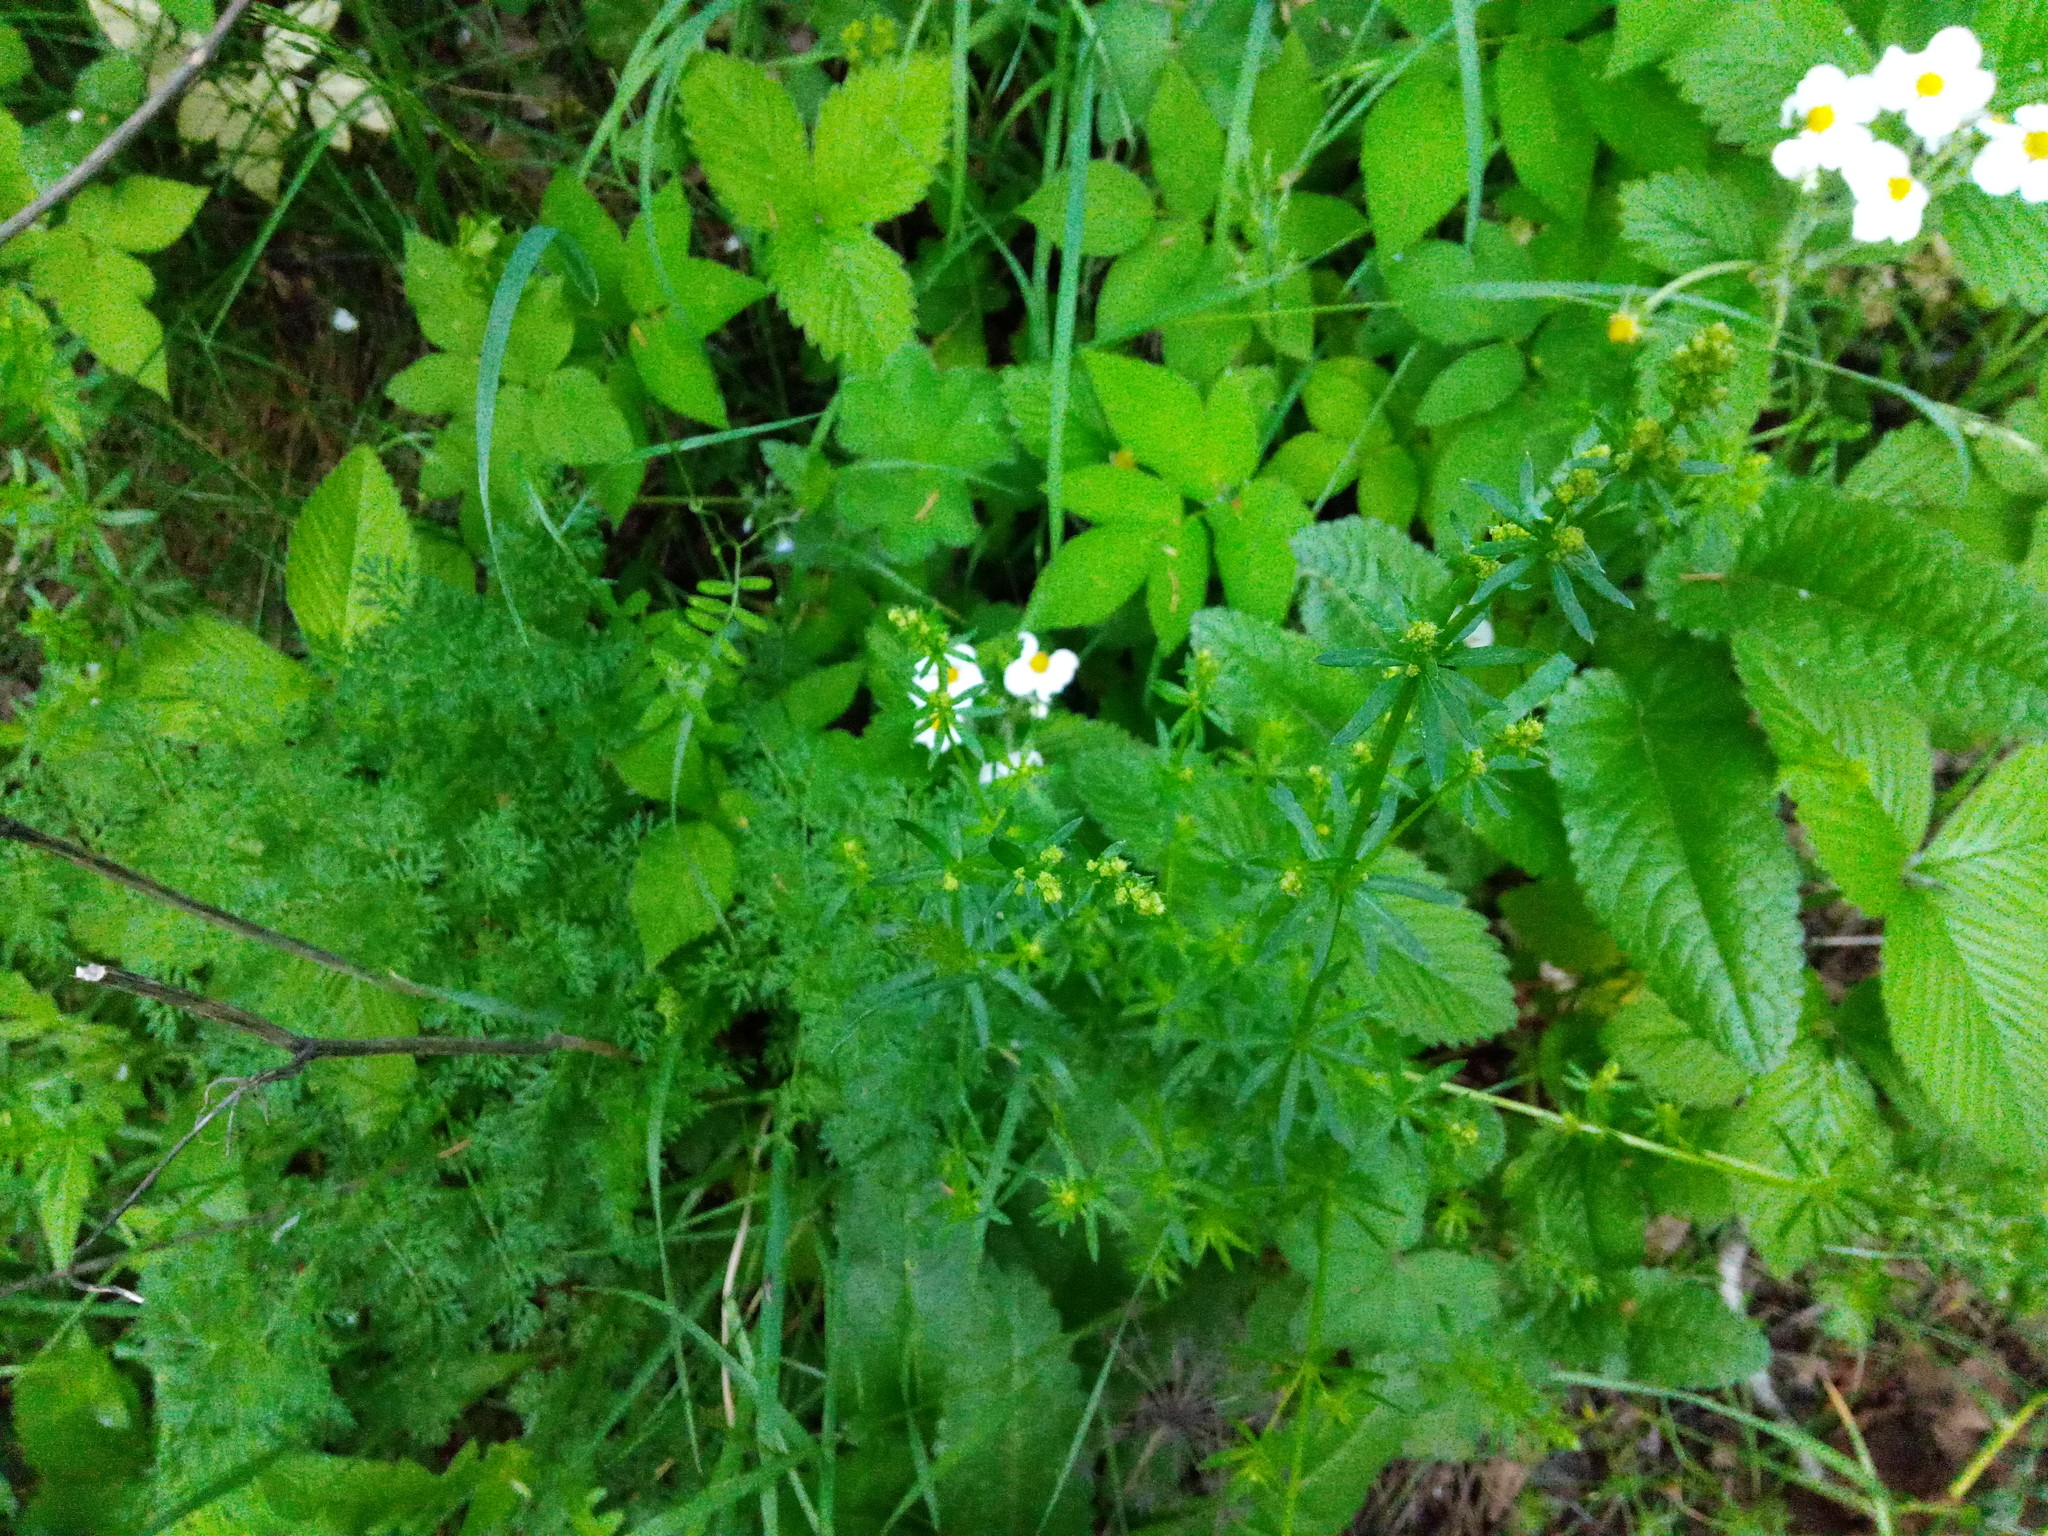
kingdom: Plantae
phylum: Tracheophyta
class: Magnoliopsida
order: Gentianales
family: Rubiaceae
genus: Galium
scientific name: Galium mollugo
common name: Hedge bedstraw
